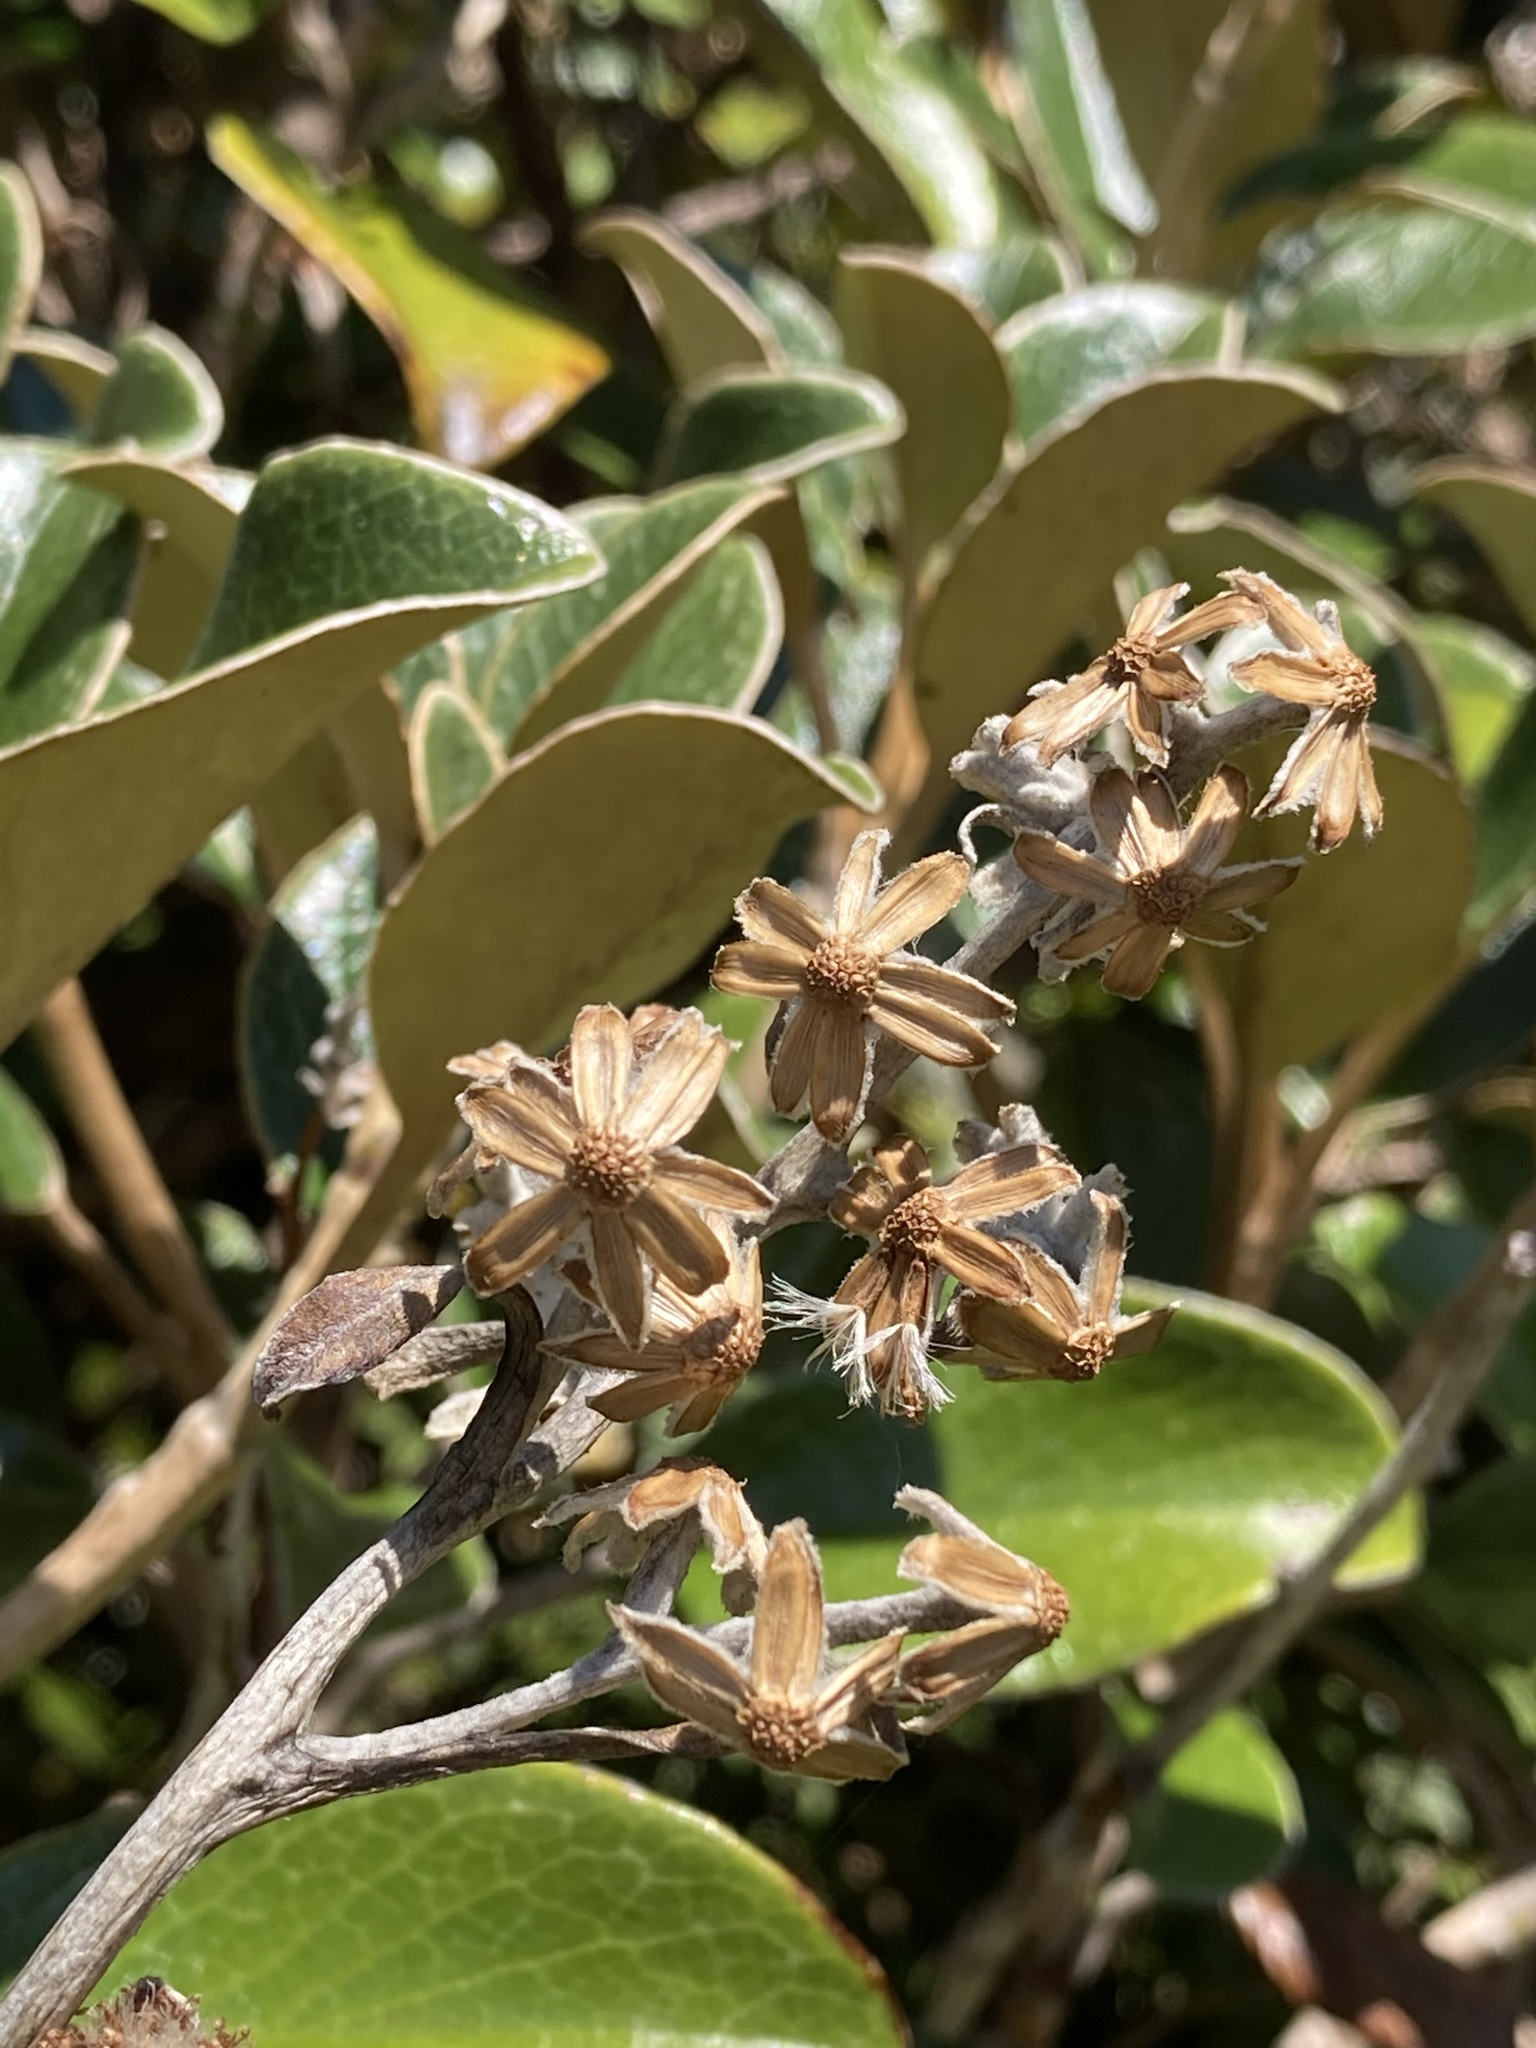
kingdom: Plantae
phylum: Tracheophyta
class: Magnoliopsida
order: Asterales
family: Asteraceae
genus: Brachyglottis
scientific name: Brachyglottis elaeagnifolia
